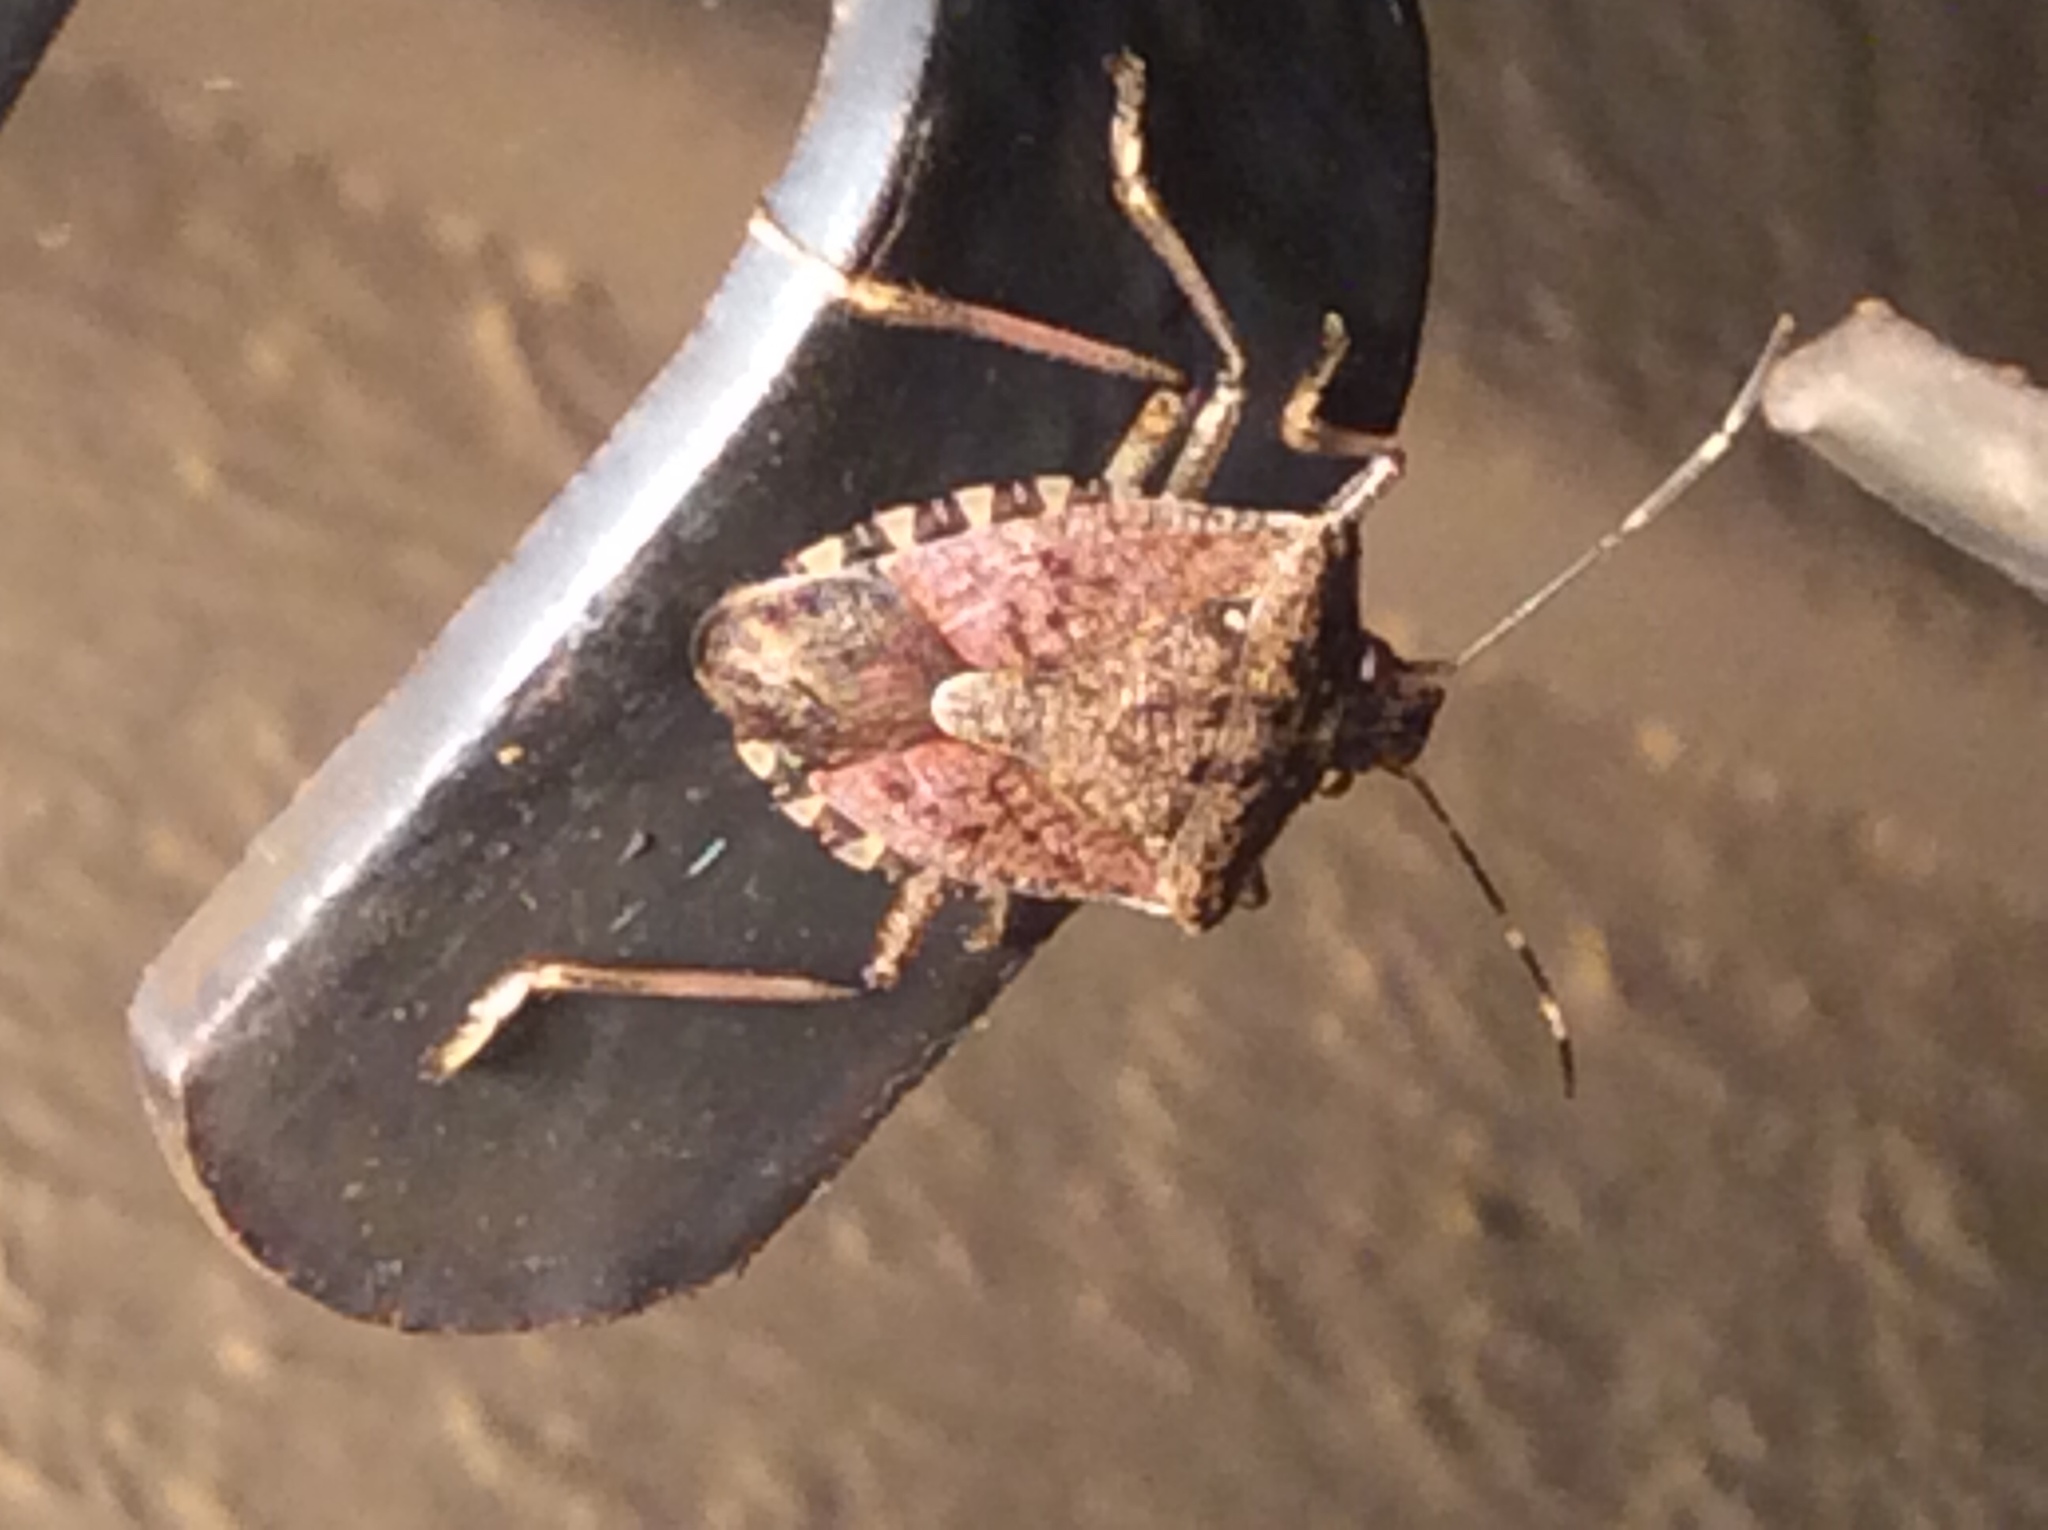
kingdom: Animalia
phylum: Arthropoda
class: Insecta
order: Hemiptera
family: Pentatomidae
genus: Halyomorpha
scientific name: Halyomorpha halys
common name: Brown marmorated stink bug
